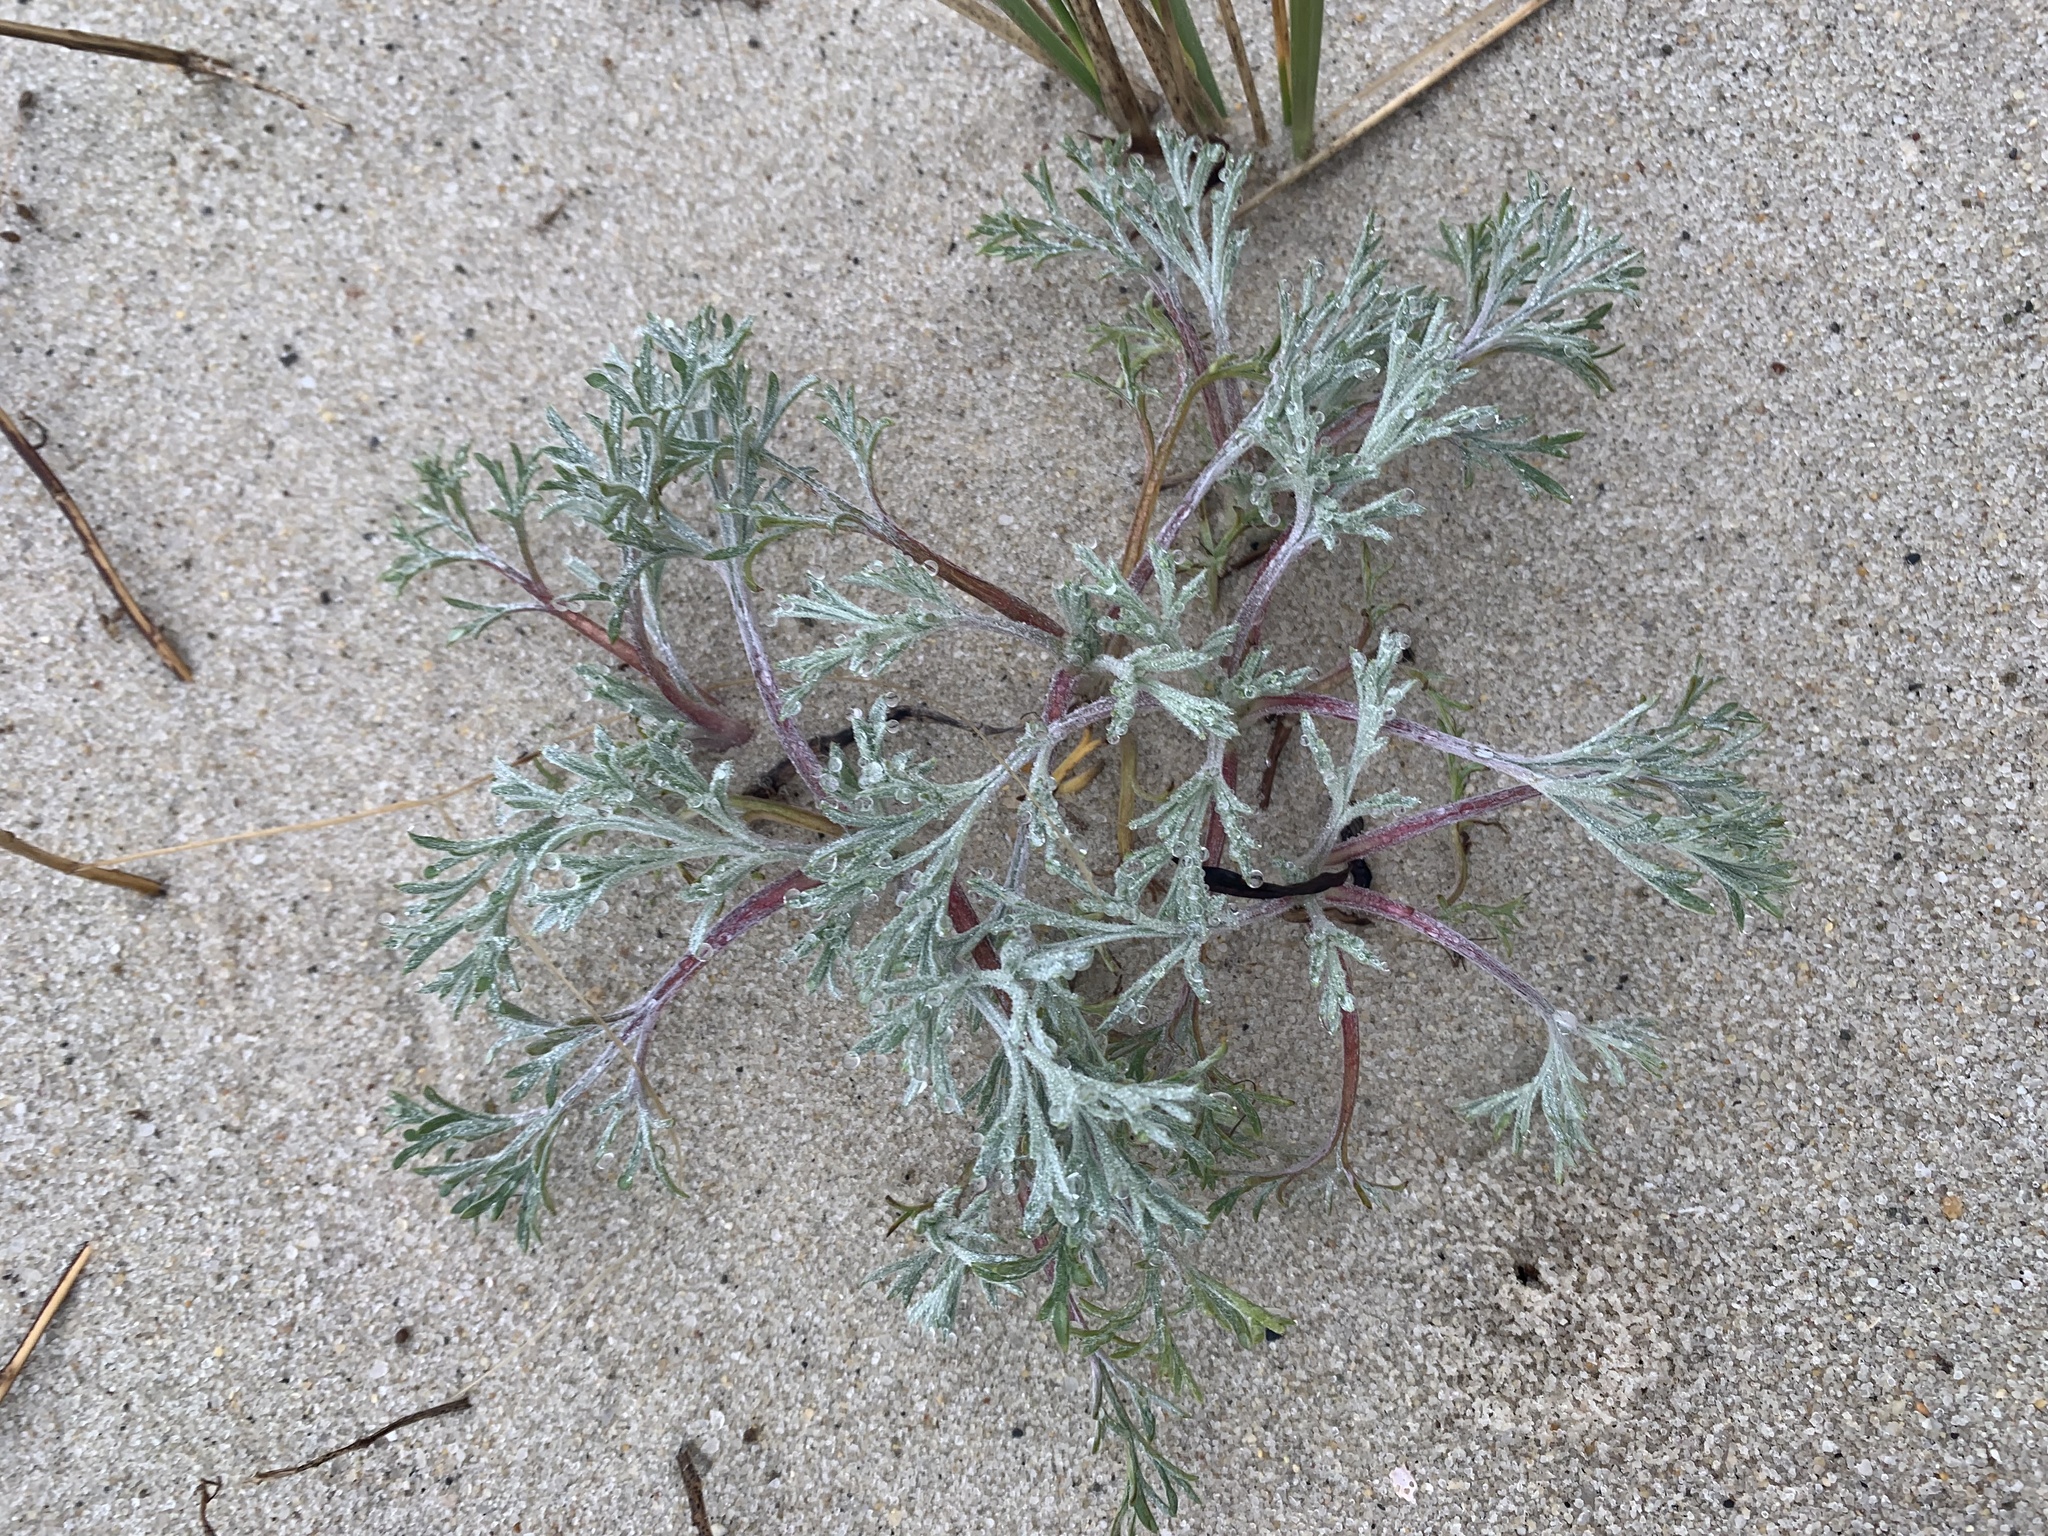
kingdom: Plantae
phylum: Tracheophyta
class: Magnoliopsida
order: Asterales
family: Asteraceae
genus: Artemisia
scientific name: Artemisia campestris
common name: Field wormwood
